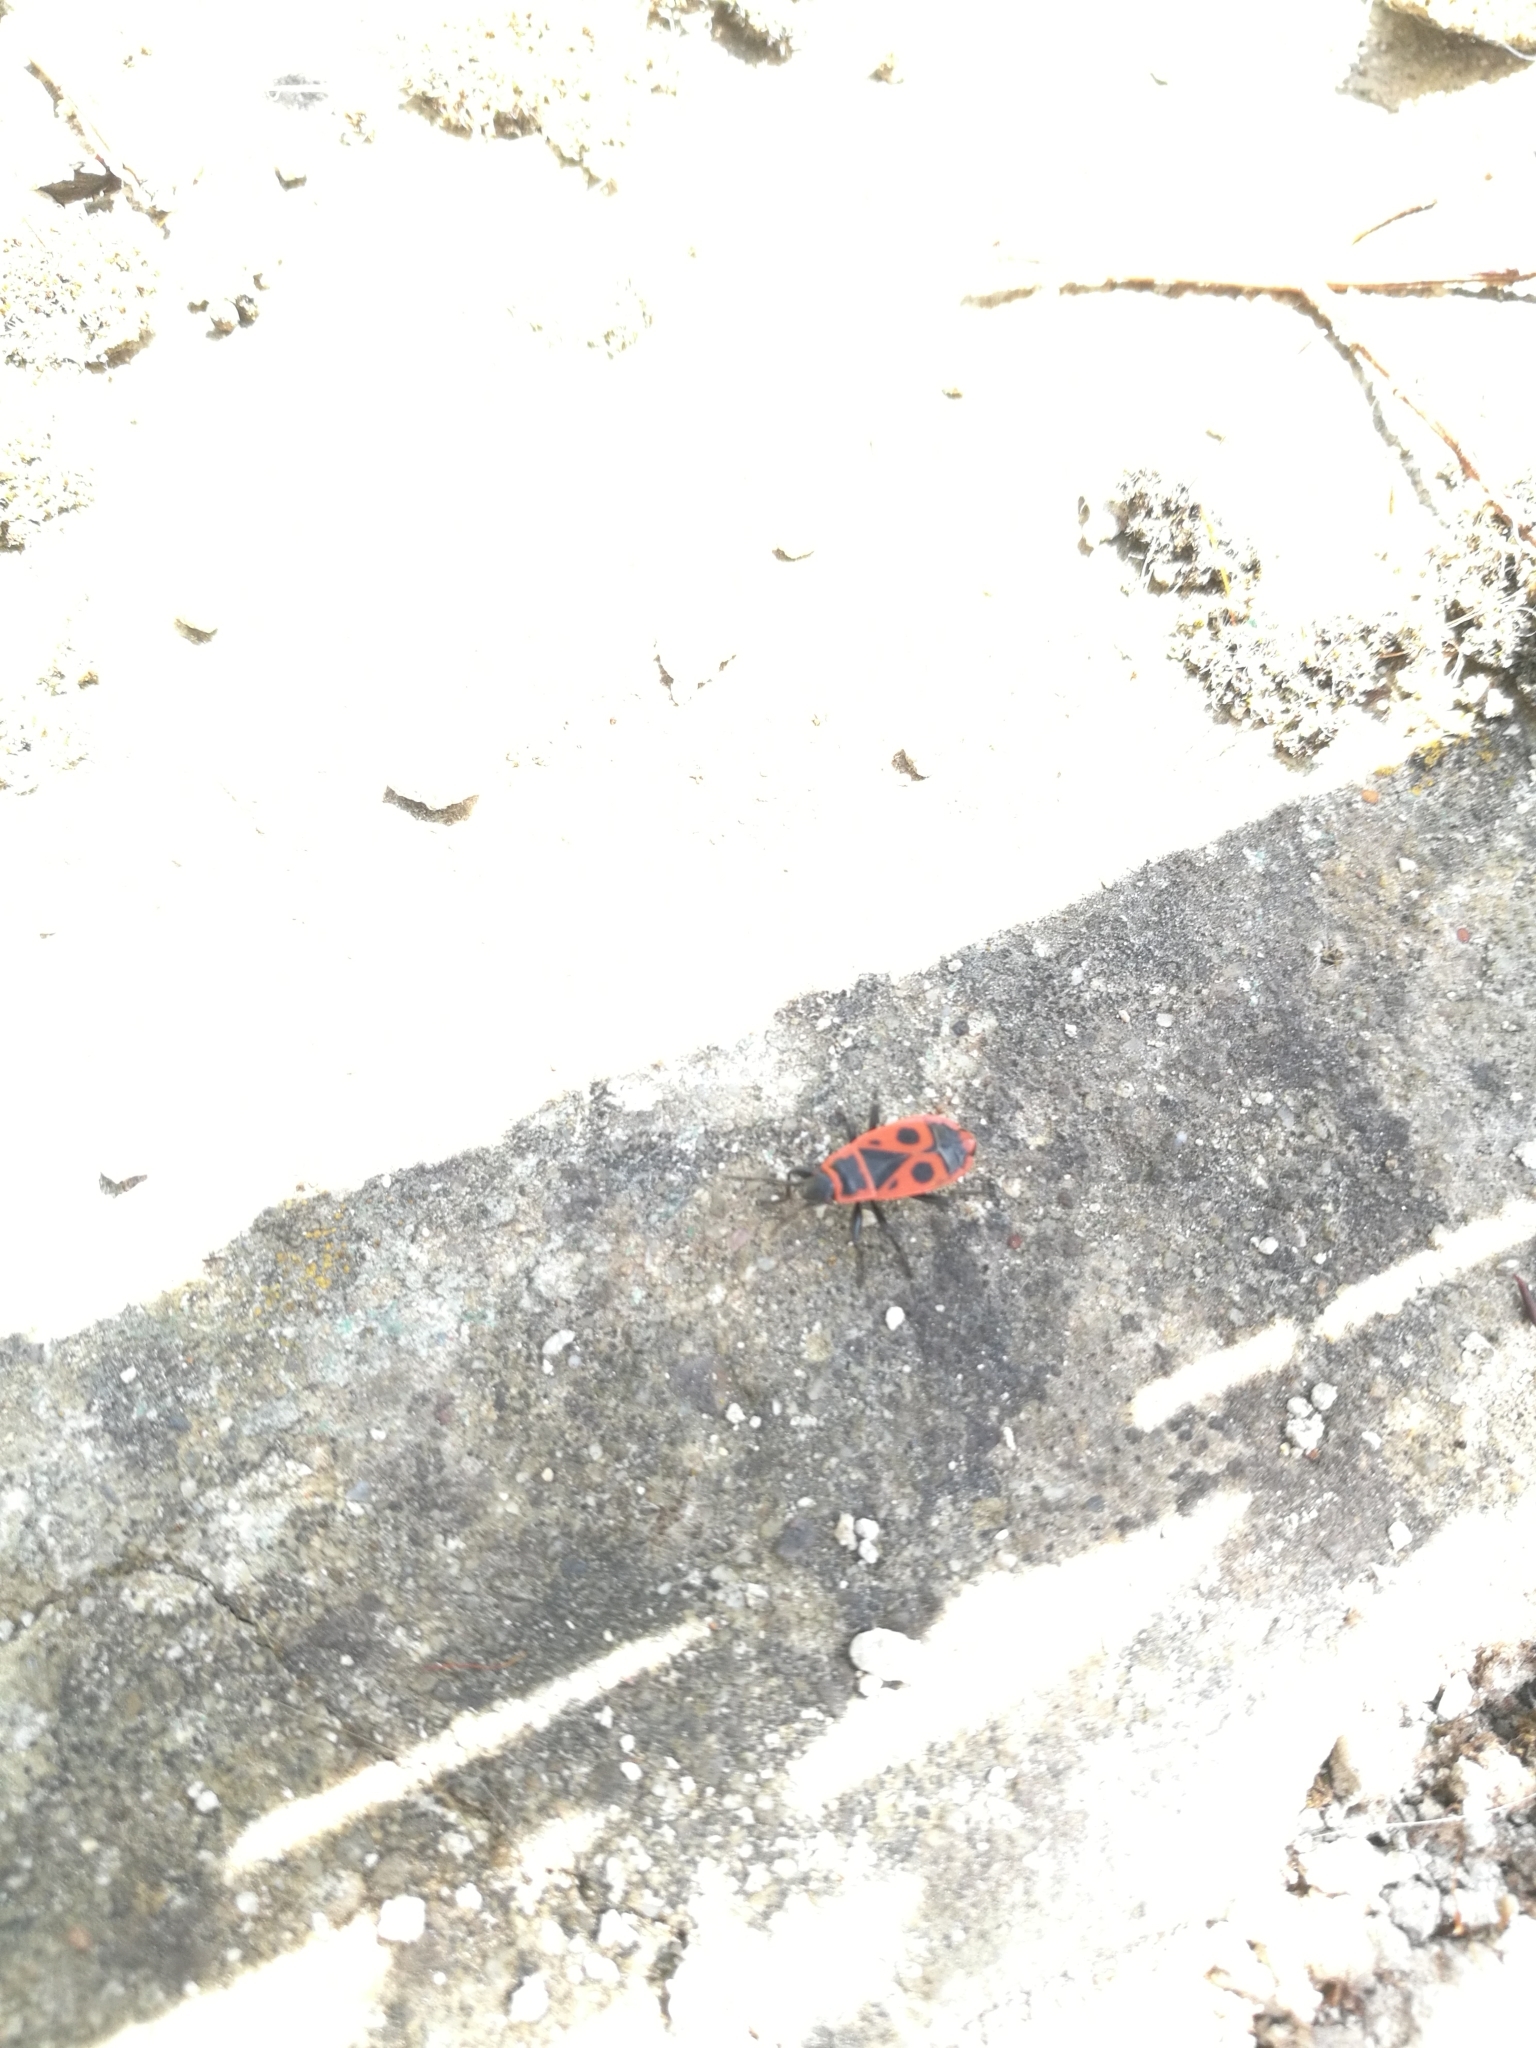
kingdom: Animalia
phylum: Arthropoda
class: Insecta
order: Hemiptera
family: Pyrrhocoridae
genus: Pyrrhocoris
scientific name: Pyrrhocoris apterus
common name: Firebug
